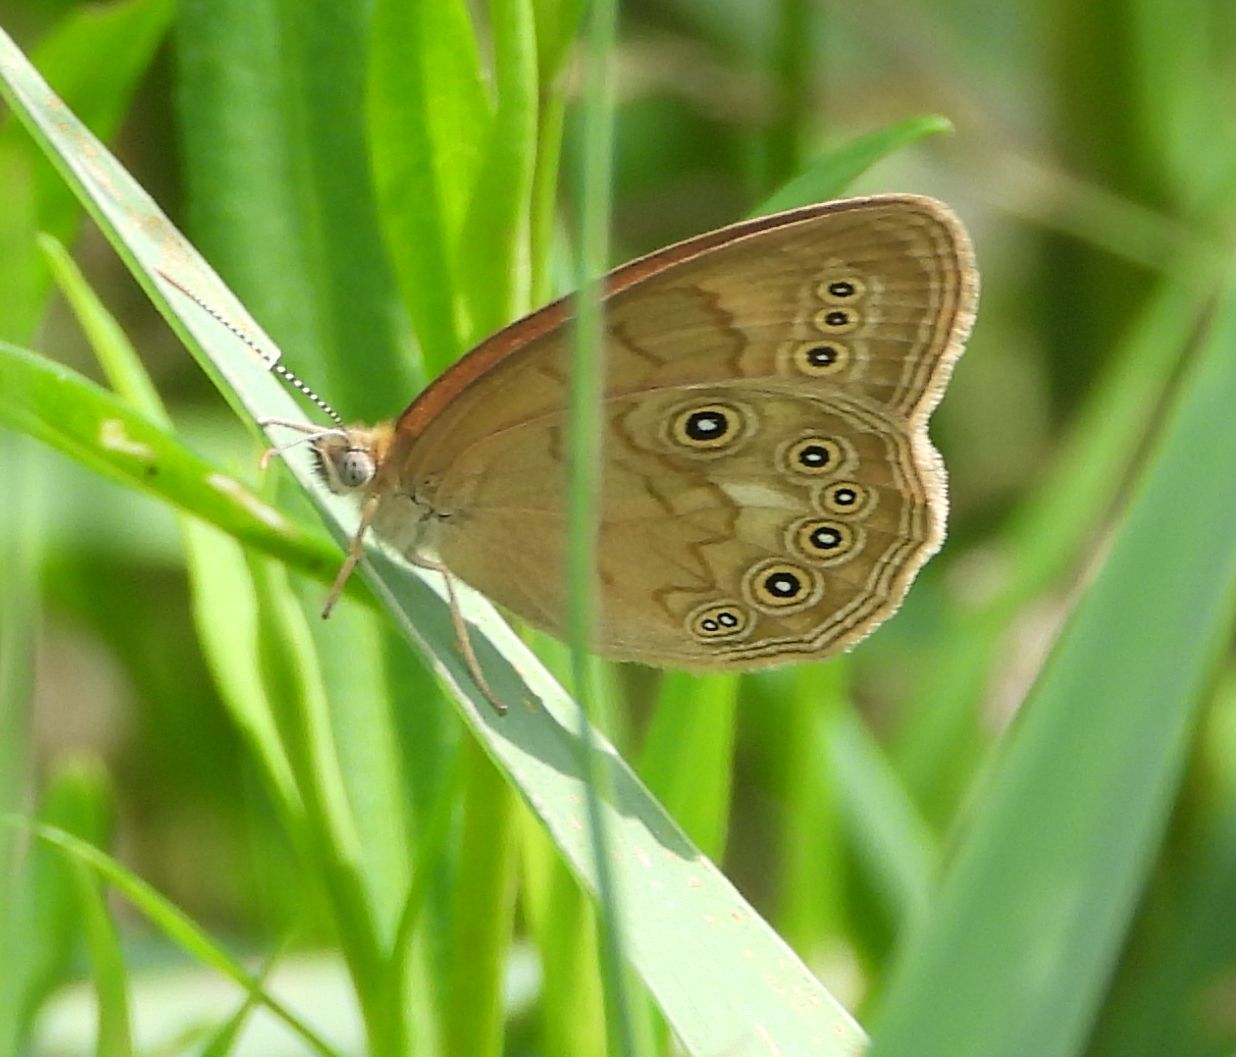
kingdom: Animalia
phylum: Arthropoda
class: Insecta
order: Lepidoptera
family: Nymphalidae
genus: Lethe
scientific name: Lethe eurydice
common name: Eyed brown
